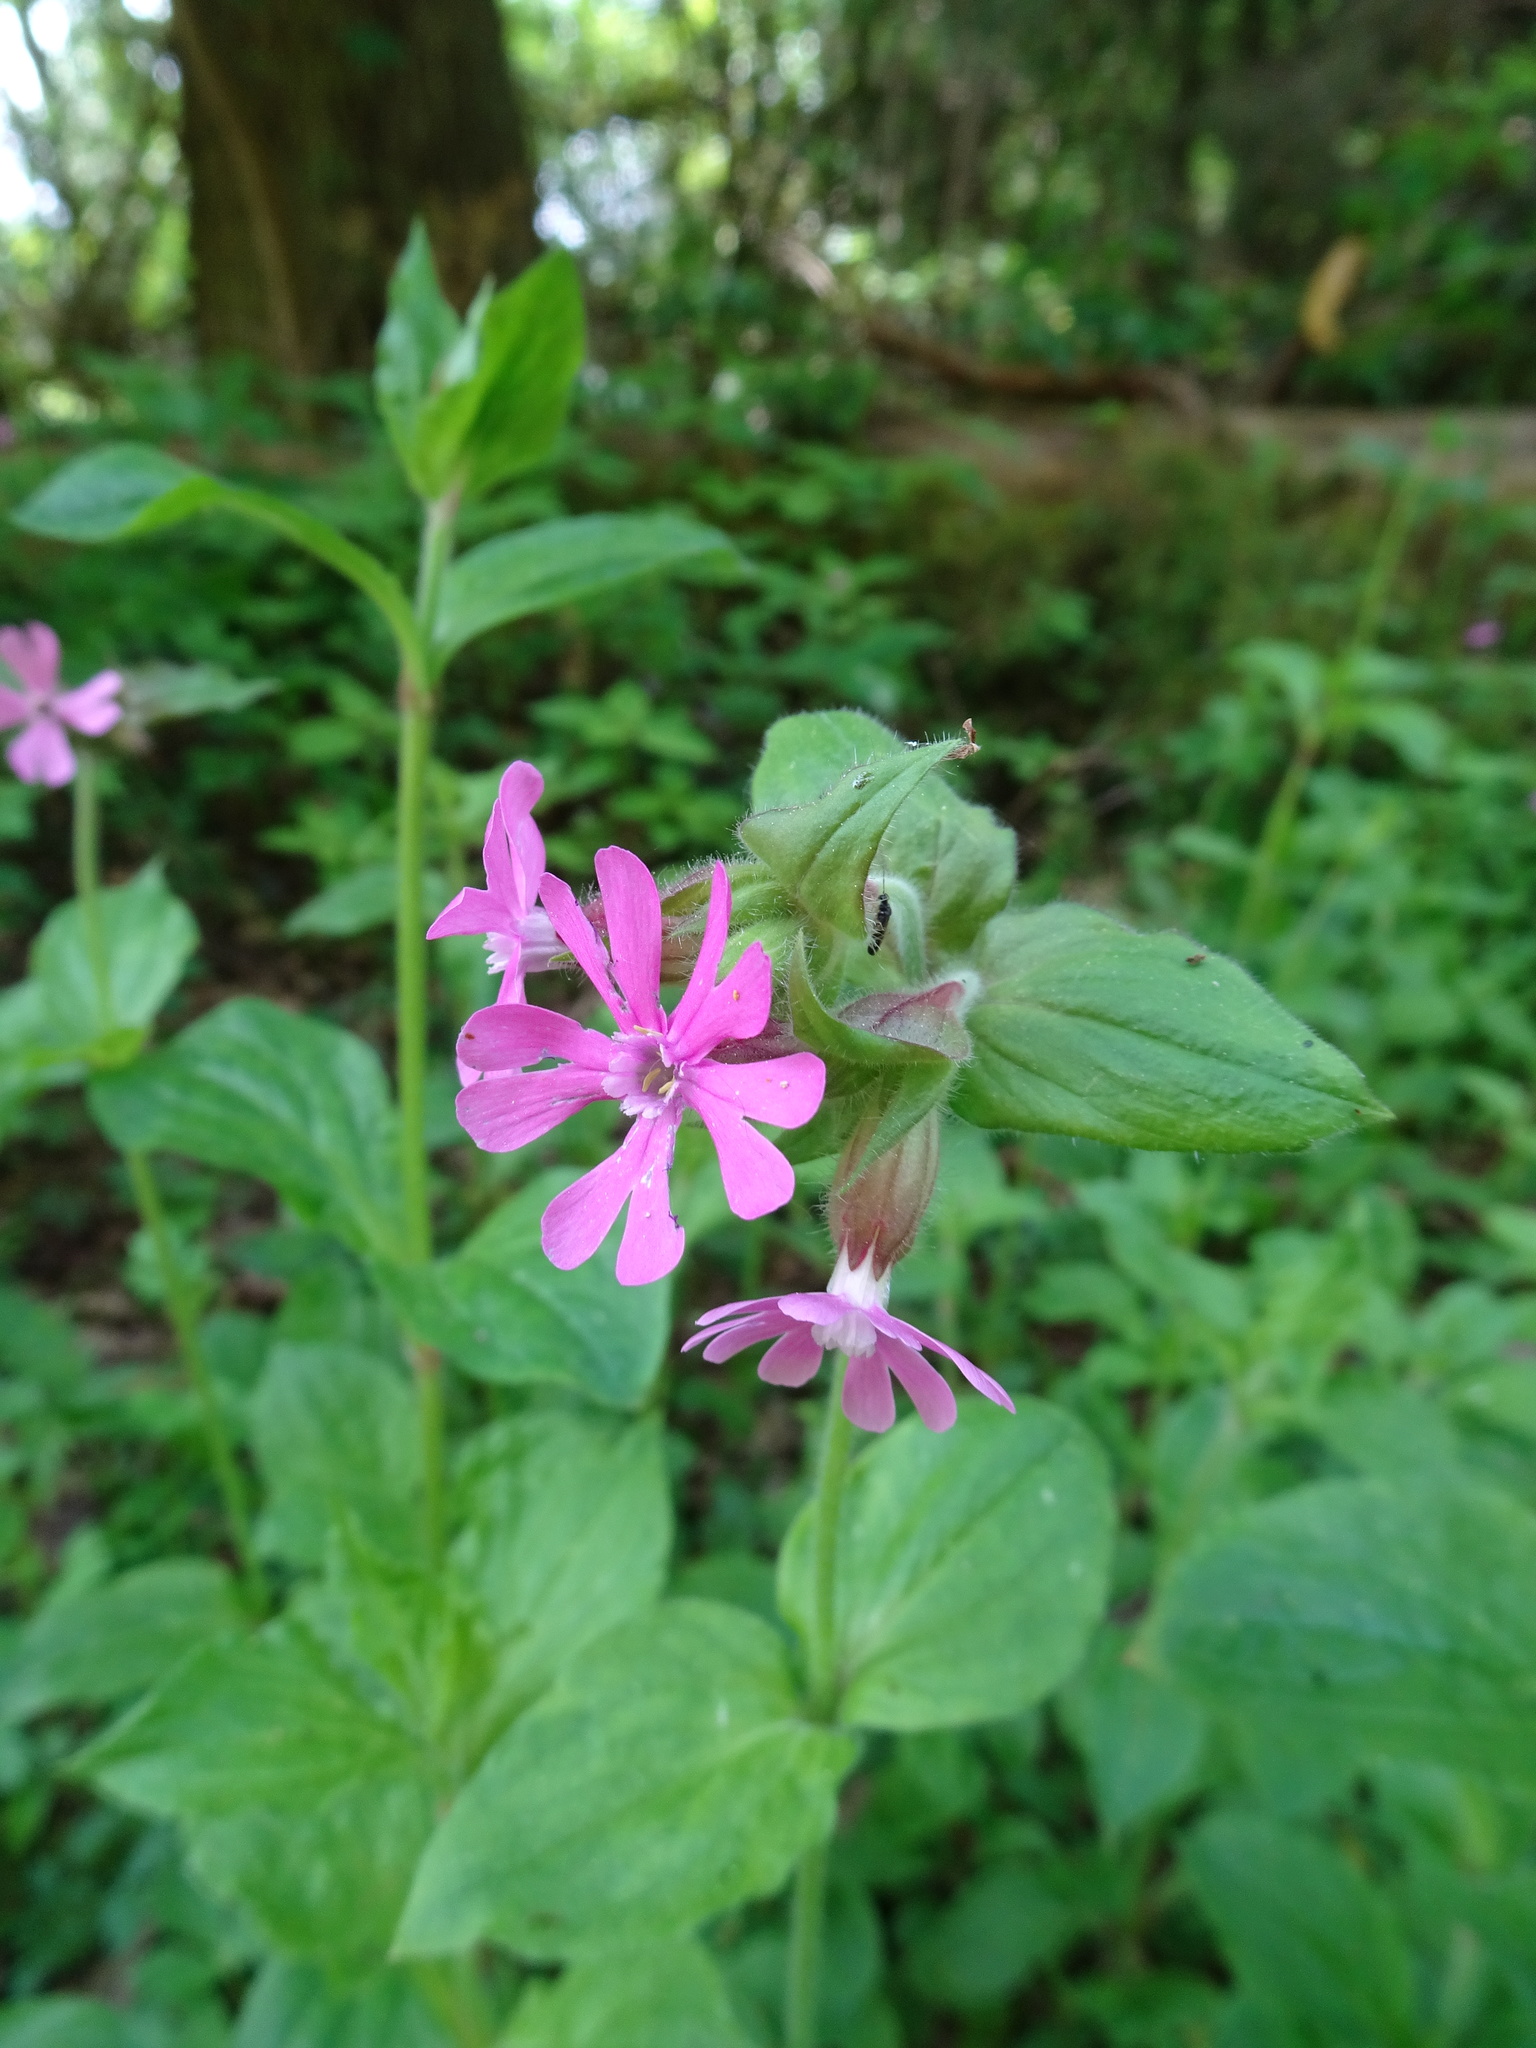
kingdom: Plantae
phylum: Tracheophyta
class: Magnoliopsida
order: Caryophyllales
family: Caryophyllaceae
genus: Silene
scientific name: Silene dioica
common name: Red campion
